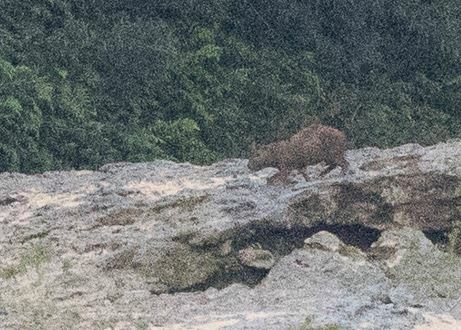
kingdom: Animalia
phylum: Chordata
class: Mammalia
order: Rodentia
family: Caviidae
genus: Hydrochoerus
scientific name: Hydrochoerus hydrochaeris
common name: Capybara
